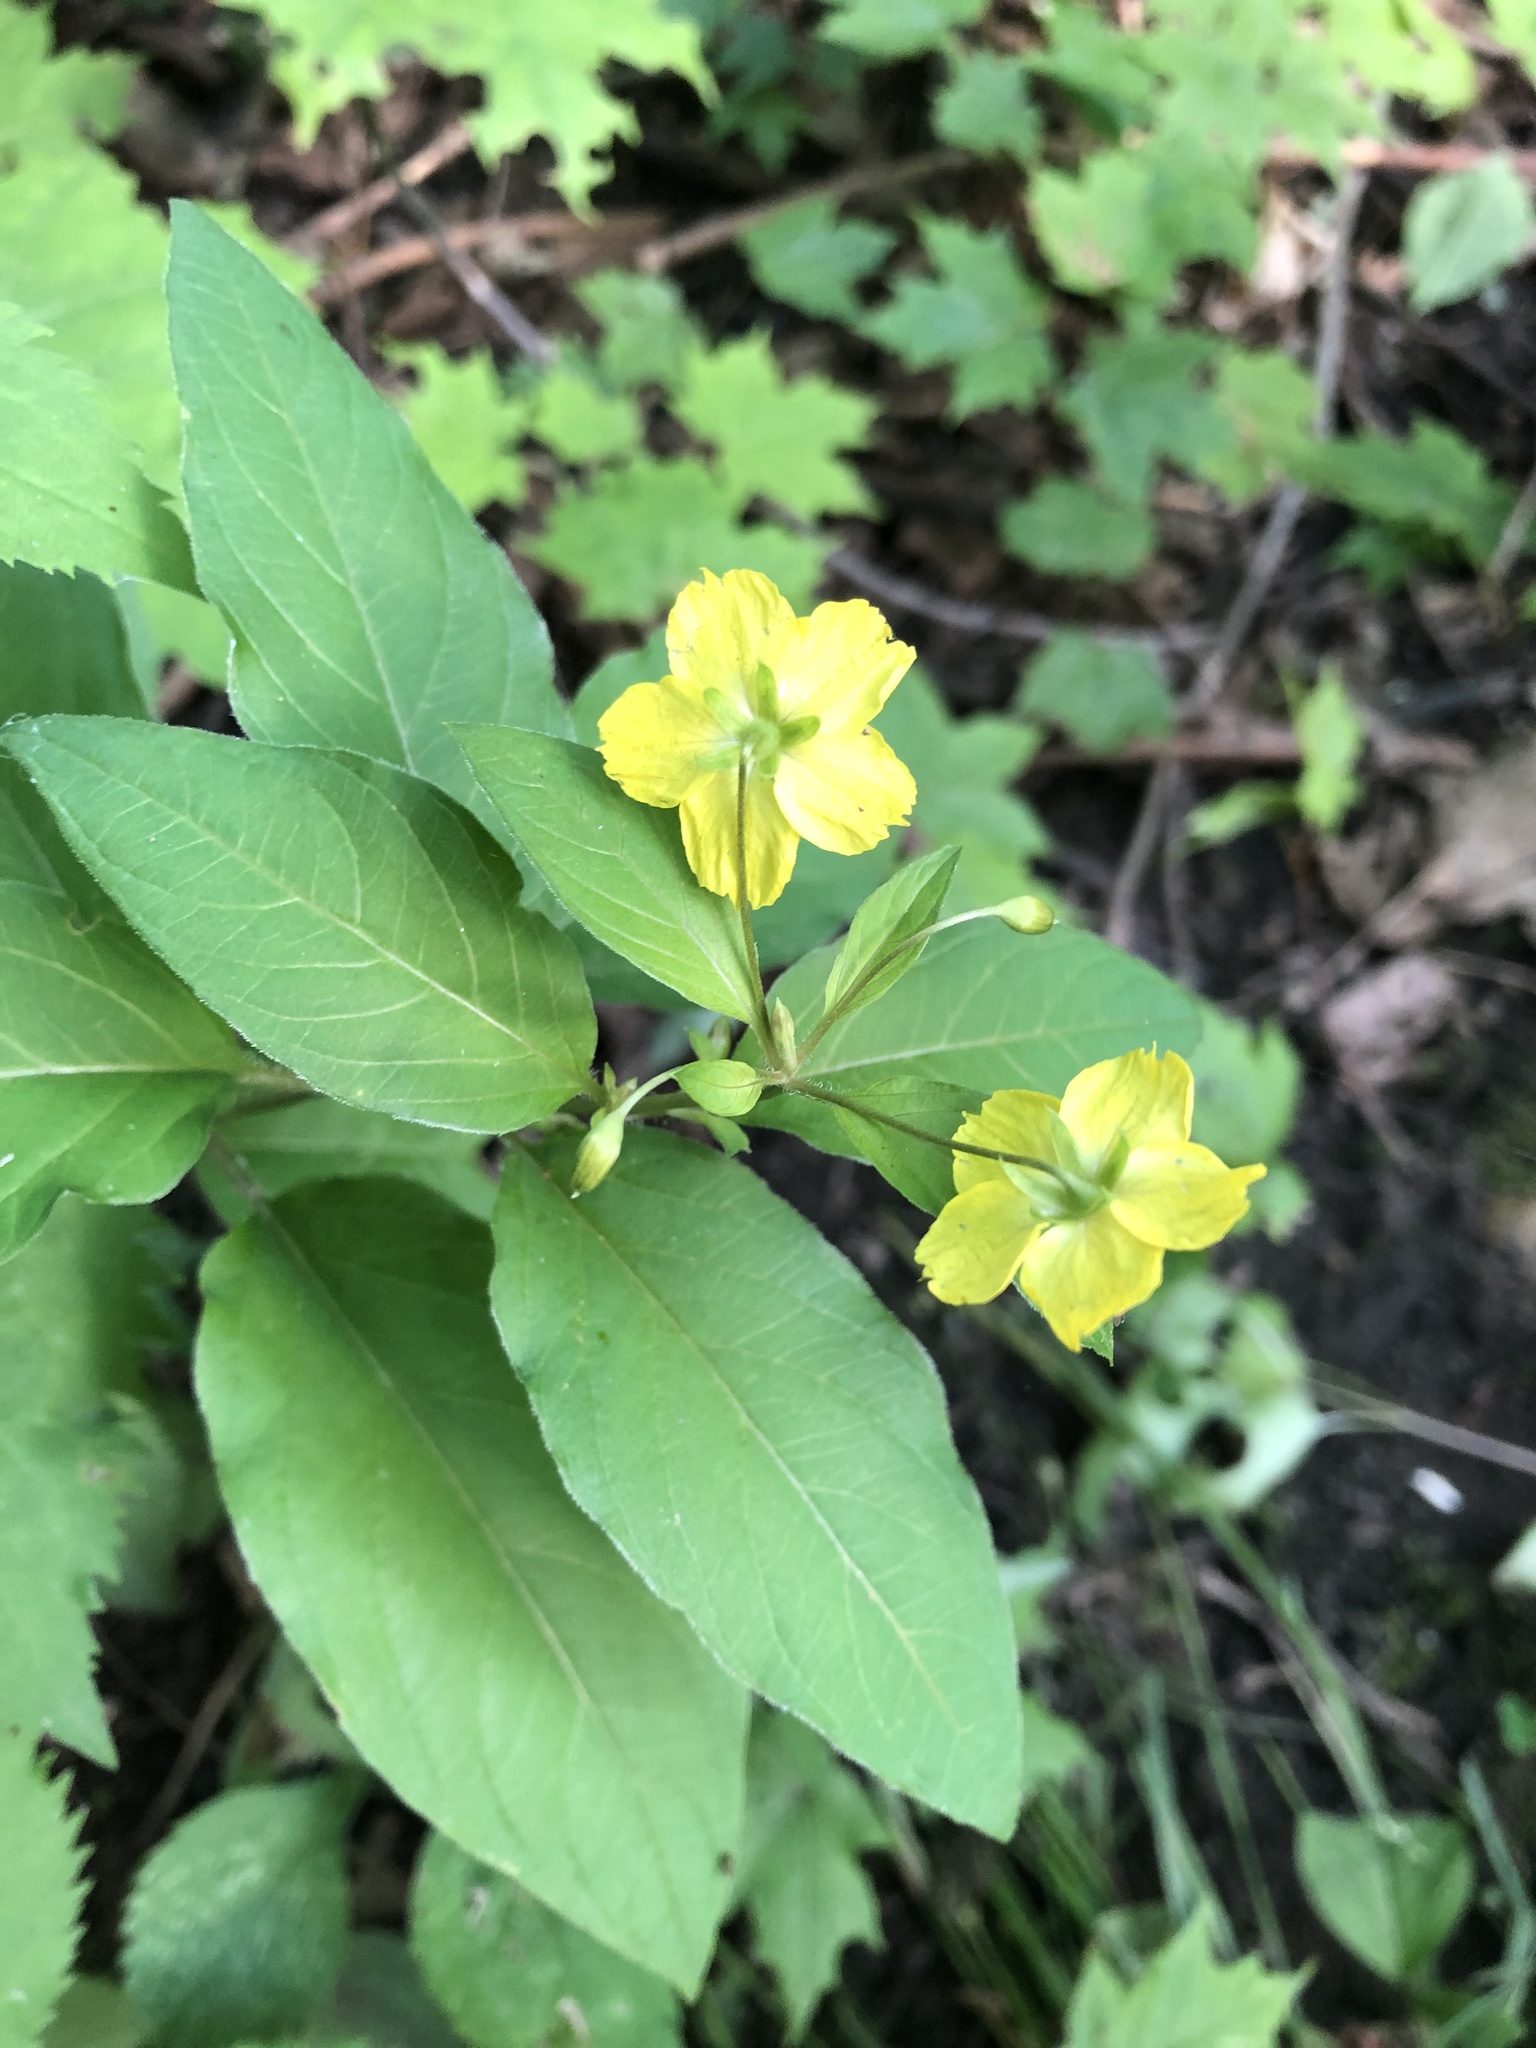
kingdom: Plantae
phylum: Tracheophyta
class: Magnoliopsida
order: Ericales
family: Primulaceae
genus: Lysimachia
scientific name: Lysimachia ciliata
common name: Fringed loosestrife
